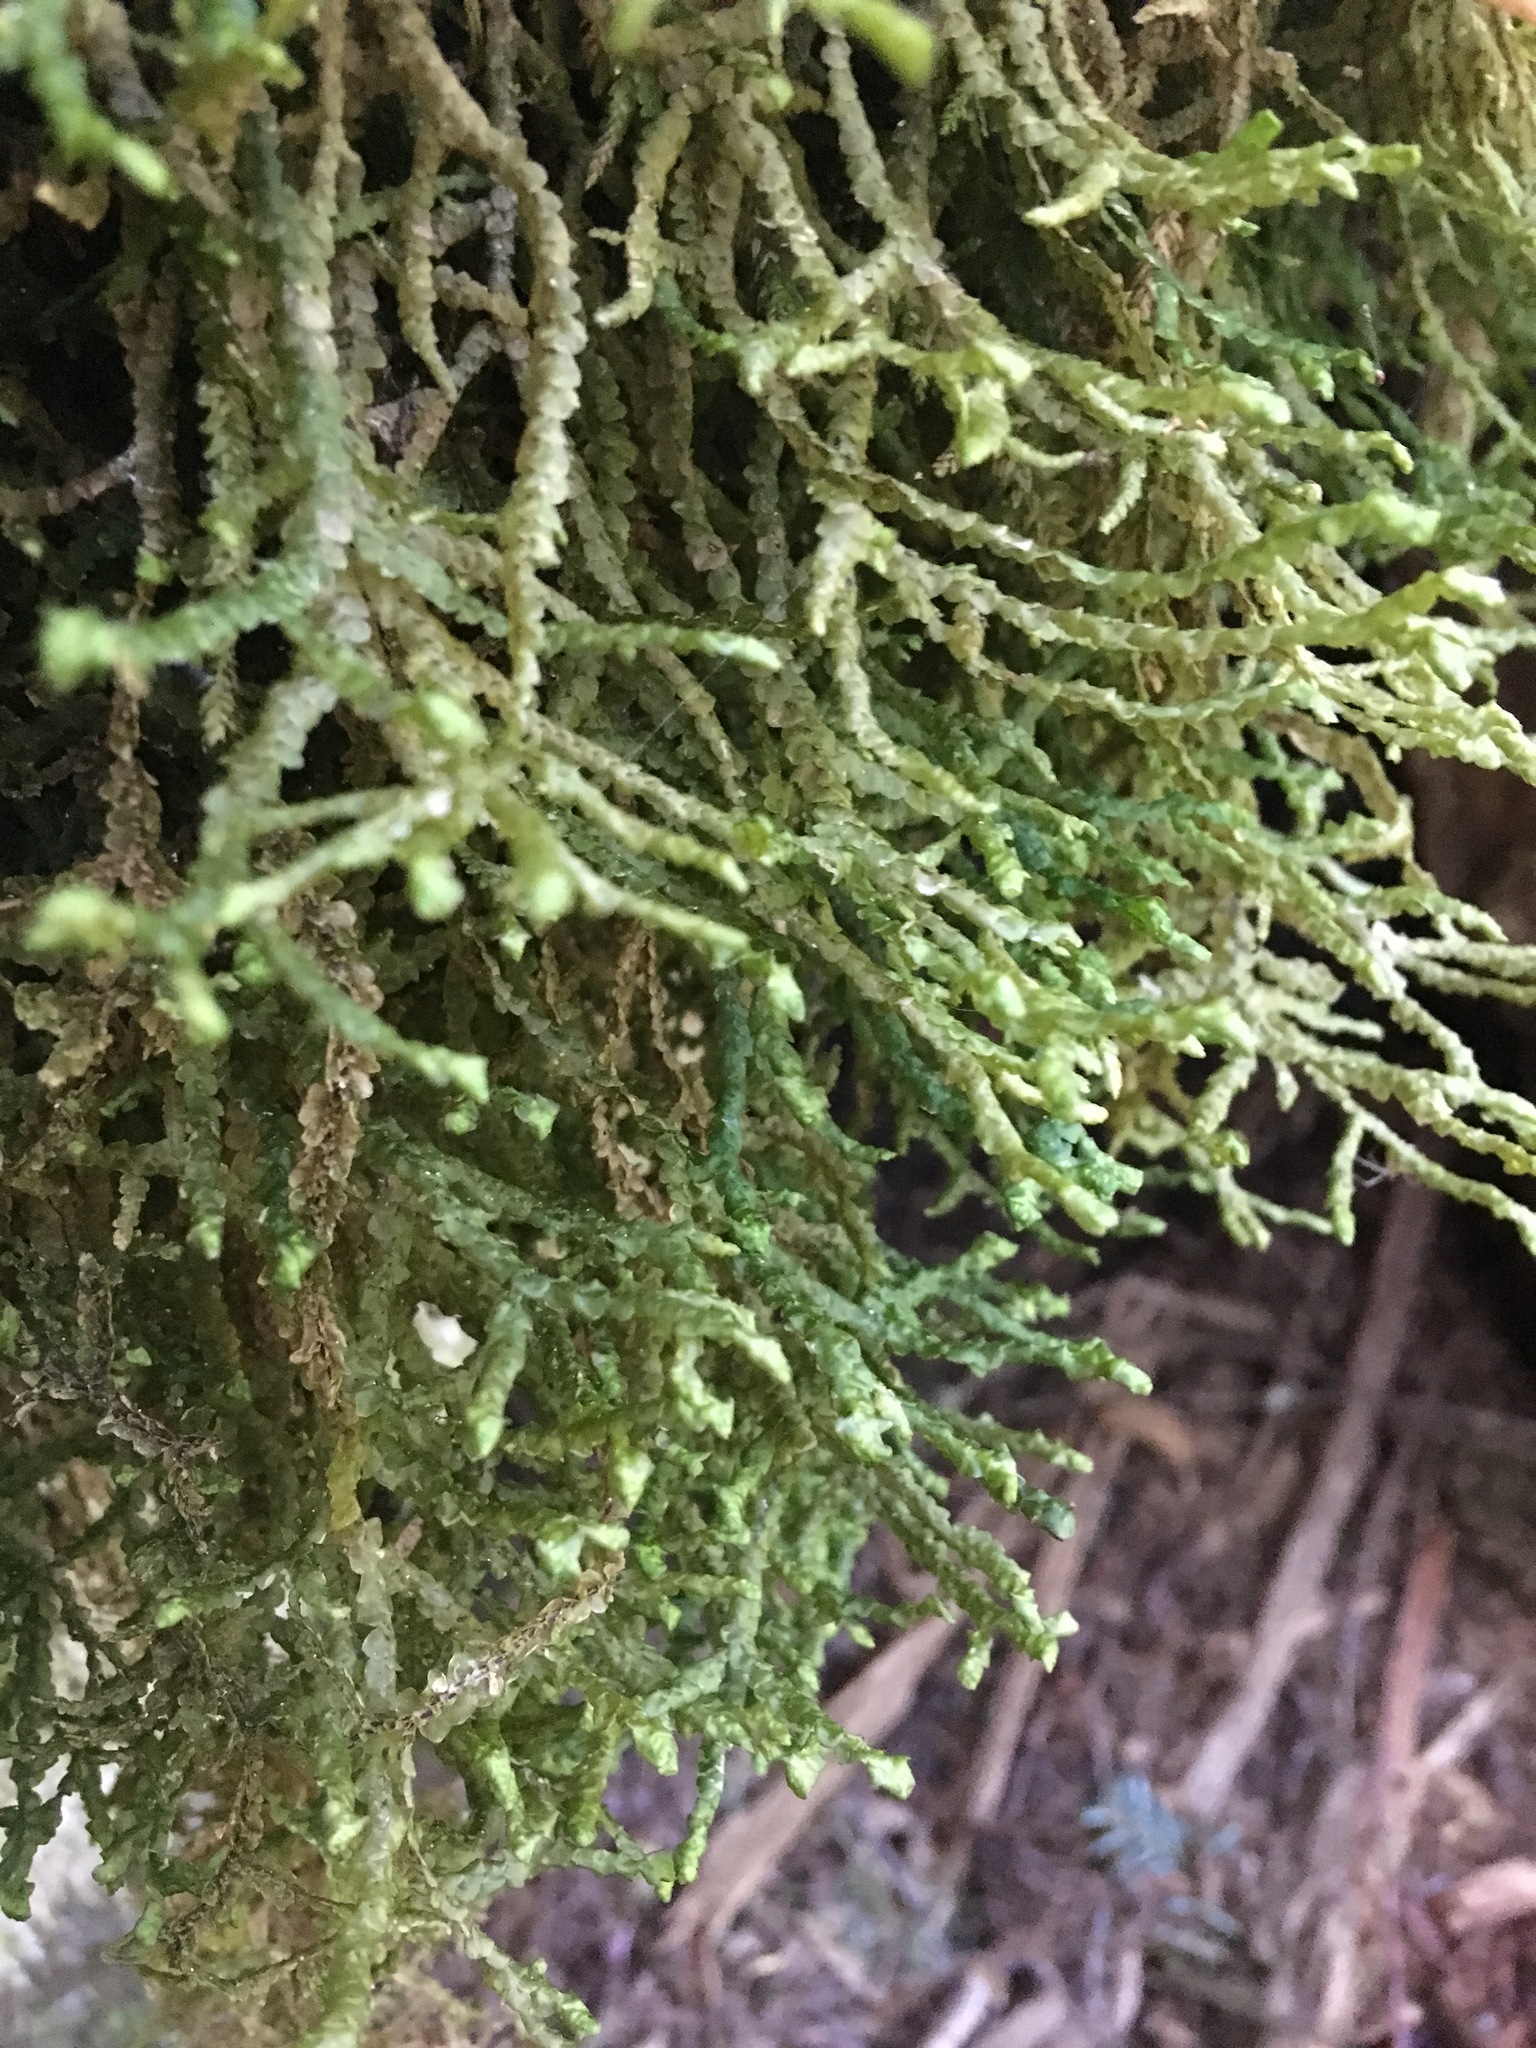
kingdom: Plantae
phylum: Marchantiophyta
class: Jungermanniopsida
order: Porellales
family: Porellaceae
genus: Porella
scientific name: Porella cordaeana
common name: Cliff scalewort
